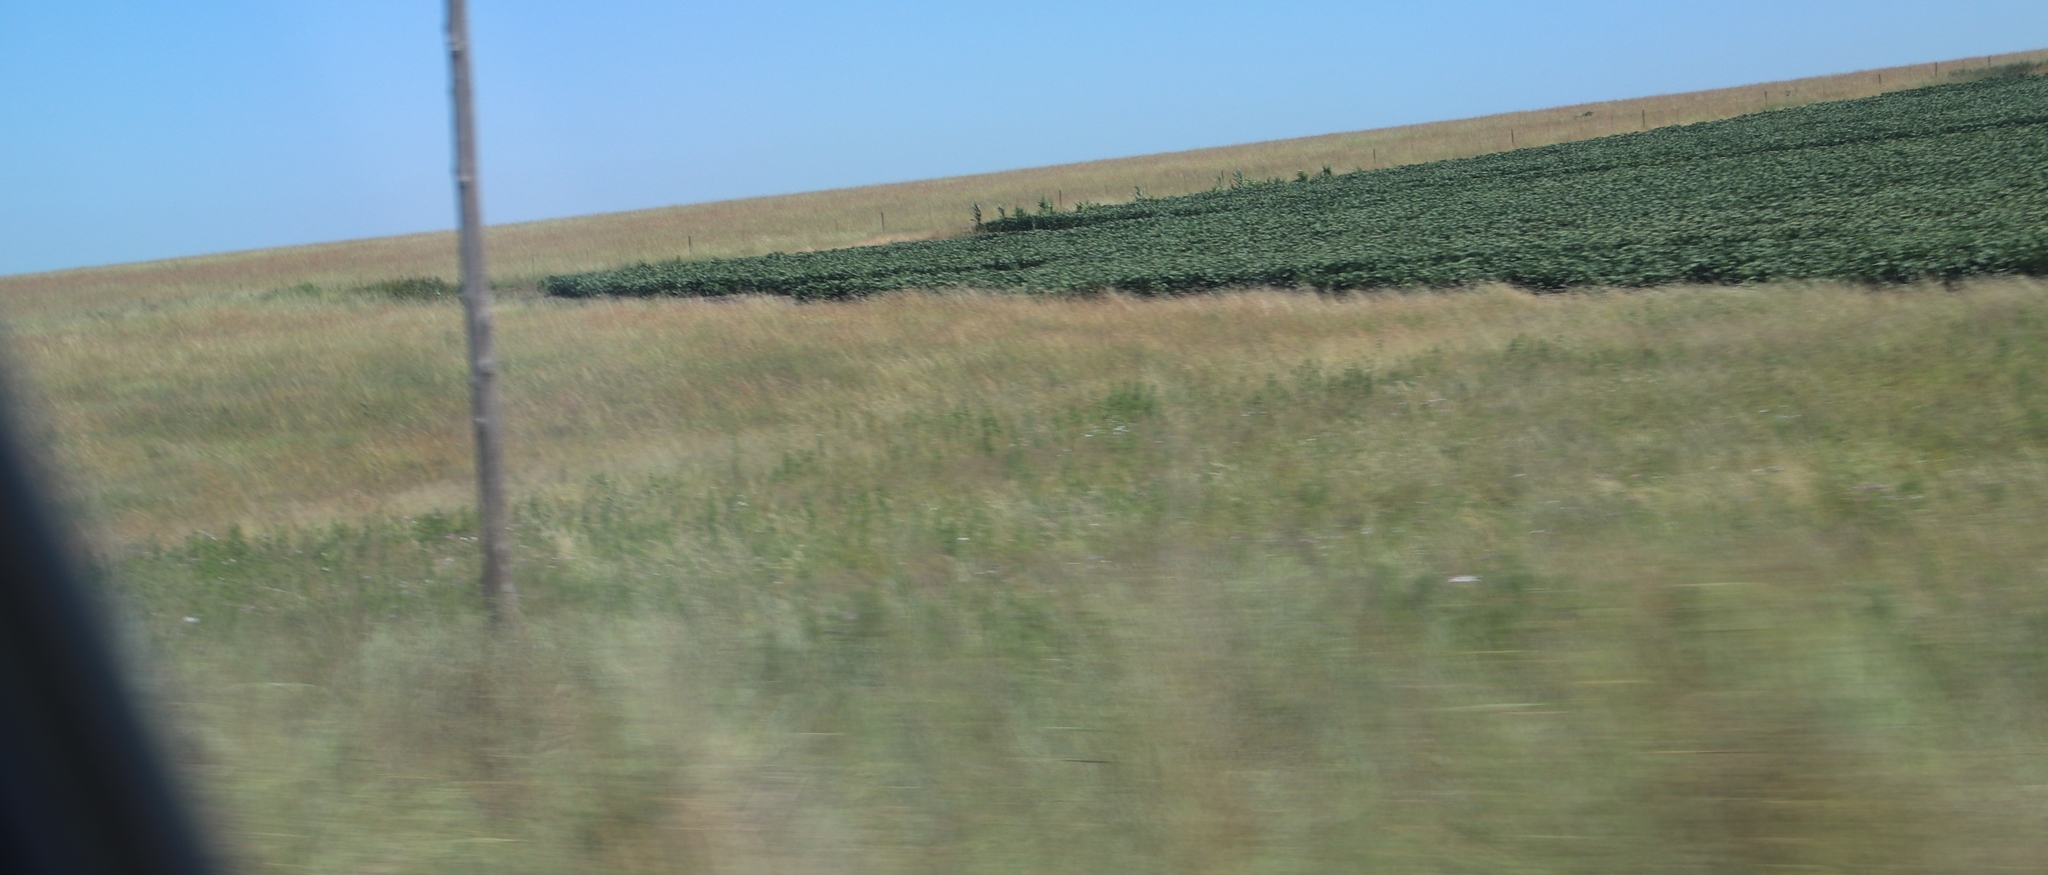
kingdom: Plantae
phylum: Tracheophyta
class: Magnoliopsida
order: Asterales
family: Asteraceae
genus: Cosmos
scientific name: Cosmos bipinnatus
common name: Garden cosmos
